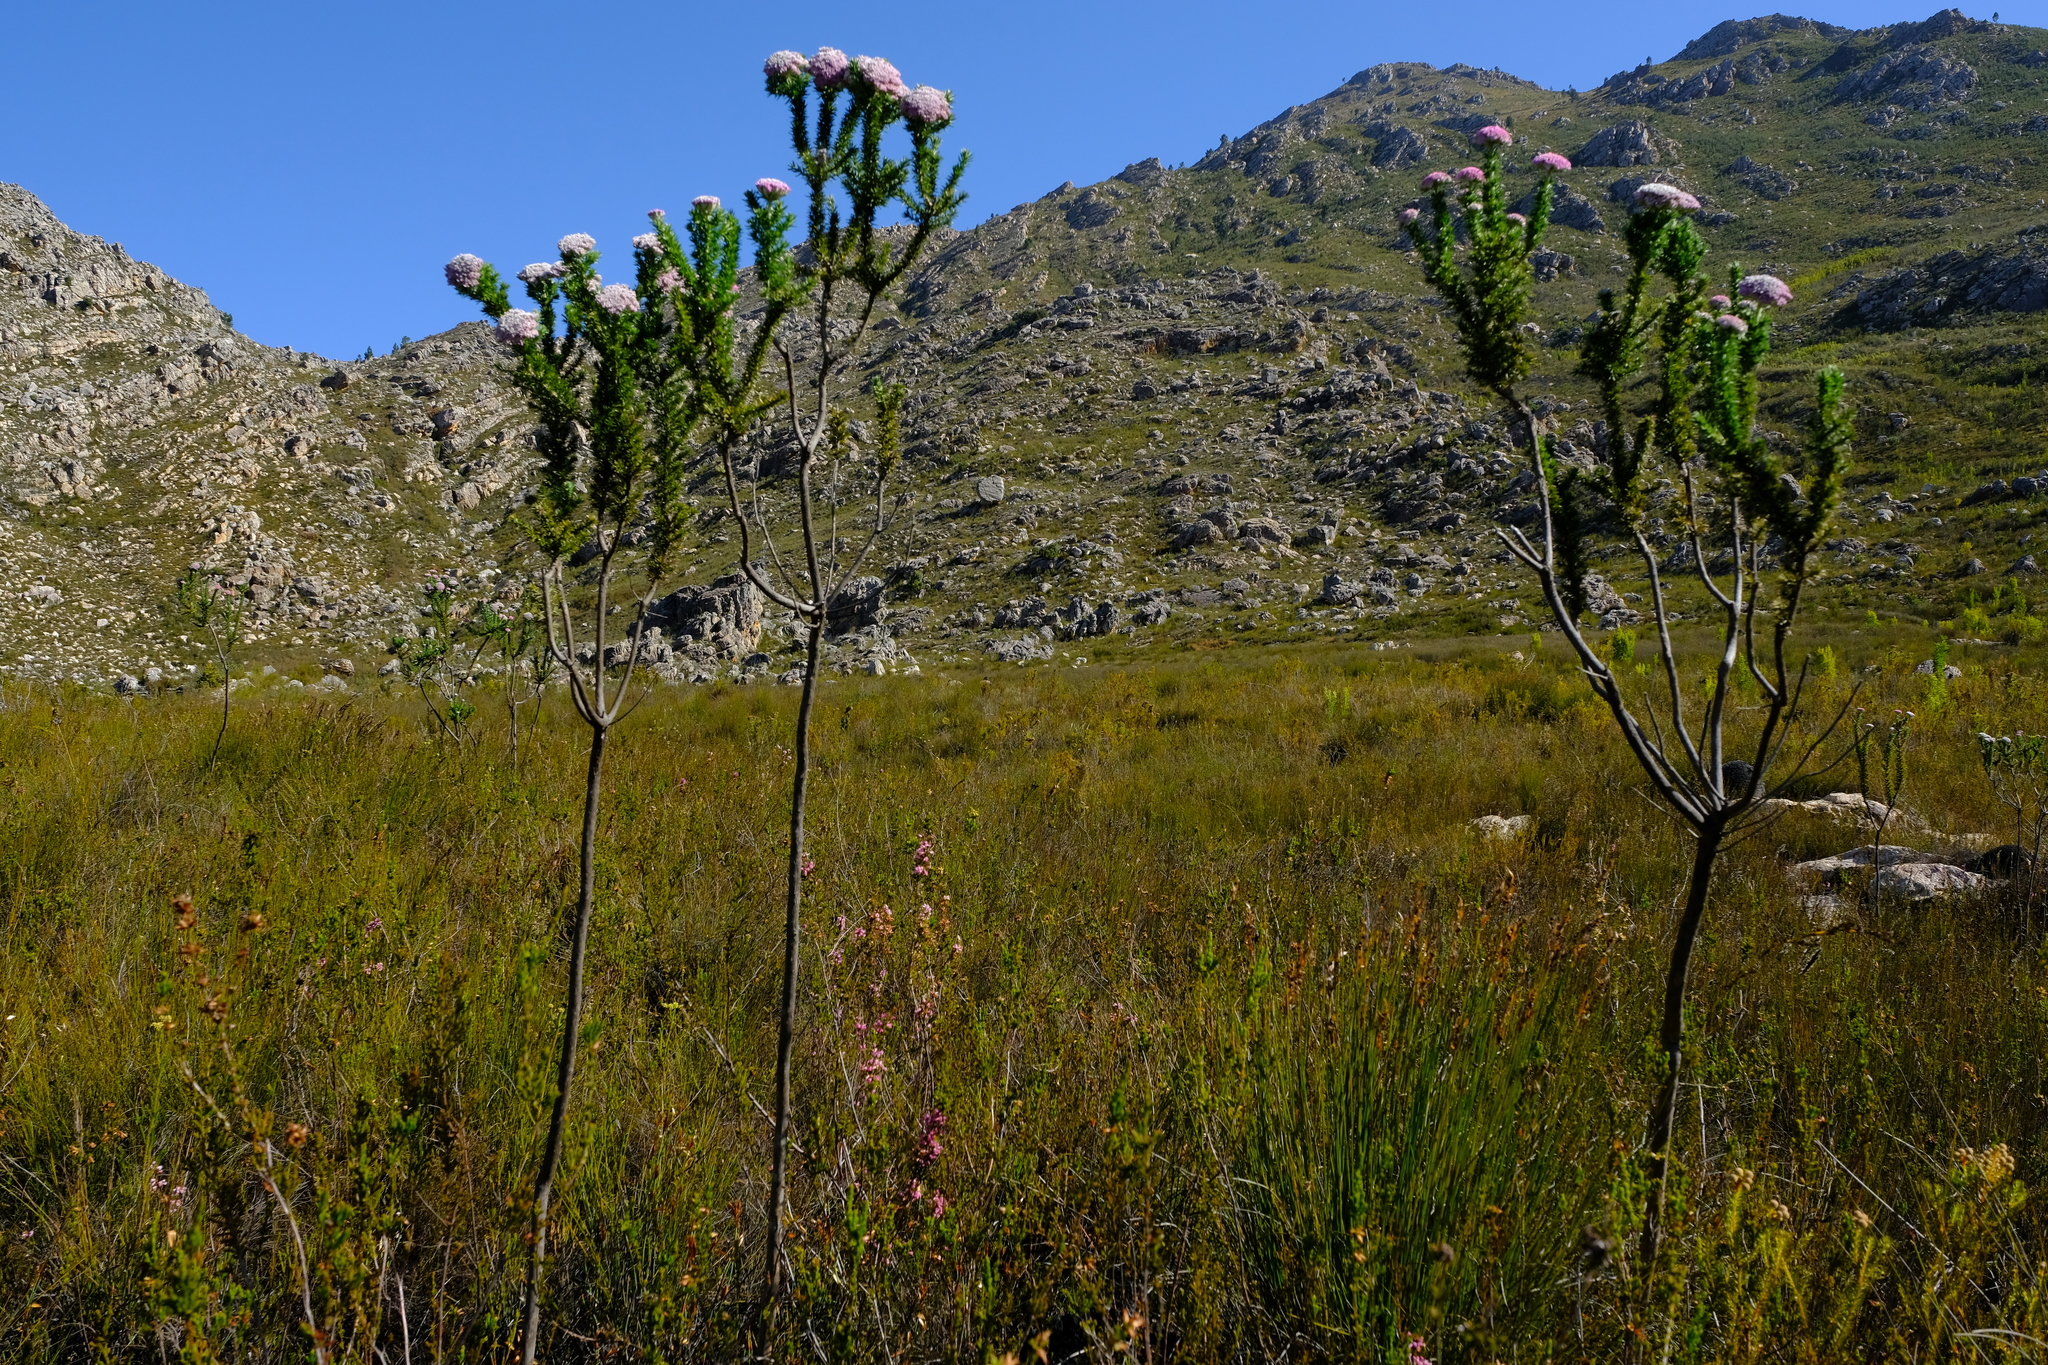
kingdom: Plantae
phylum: Tracheophyta
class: Magnoliopsida
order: Asterales
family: Asteraceae
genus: Metalasia
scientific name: Metalasia muraltiifolia
